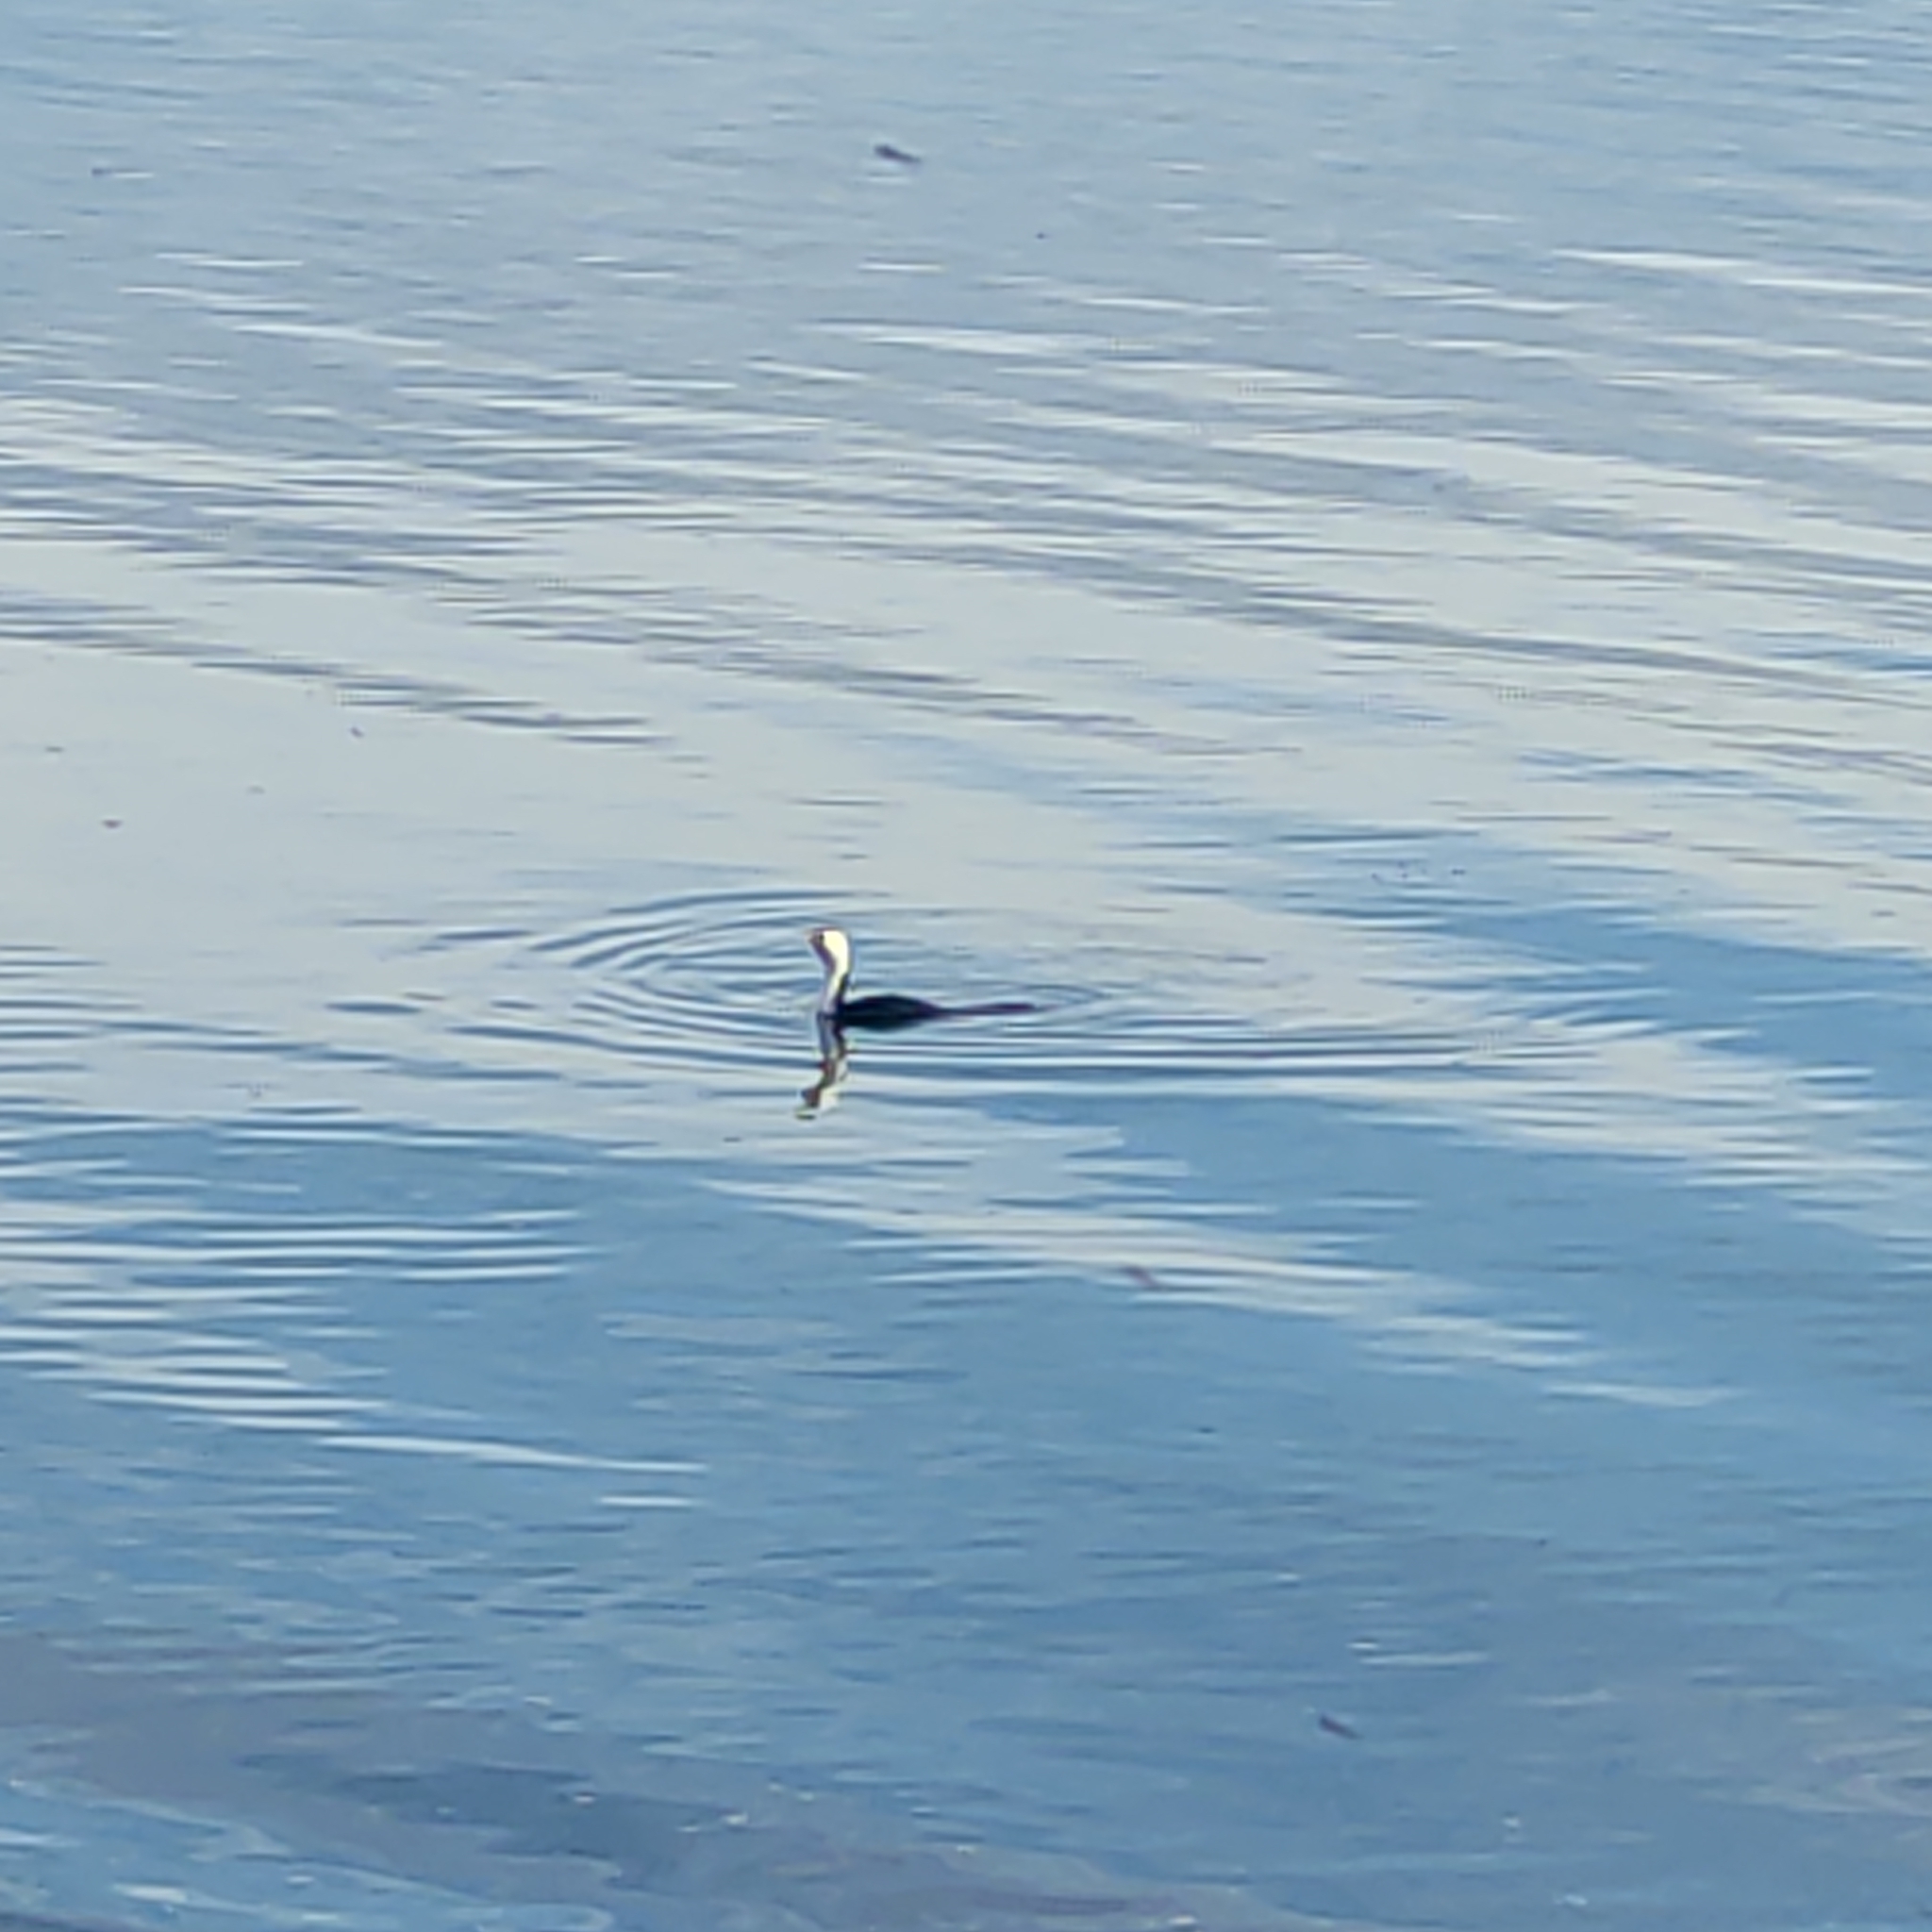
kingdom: Animalia
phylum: Chordata
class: Aves
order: Suliformes
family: Phalacrocoracidae
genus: Microcarbo
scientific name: Microcarbo melanoleucos
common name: Little pied cormorant
